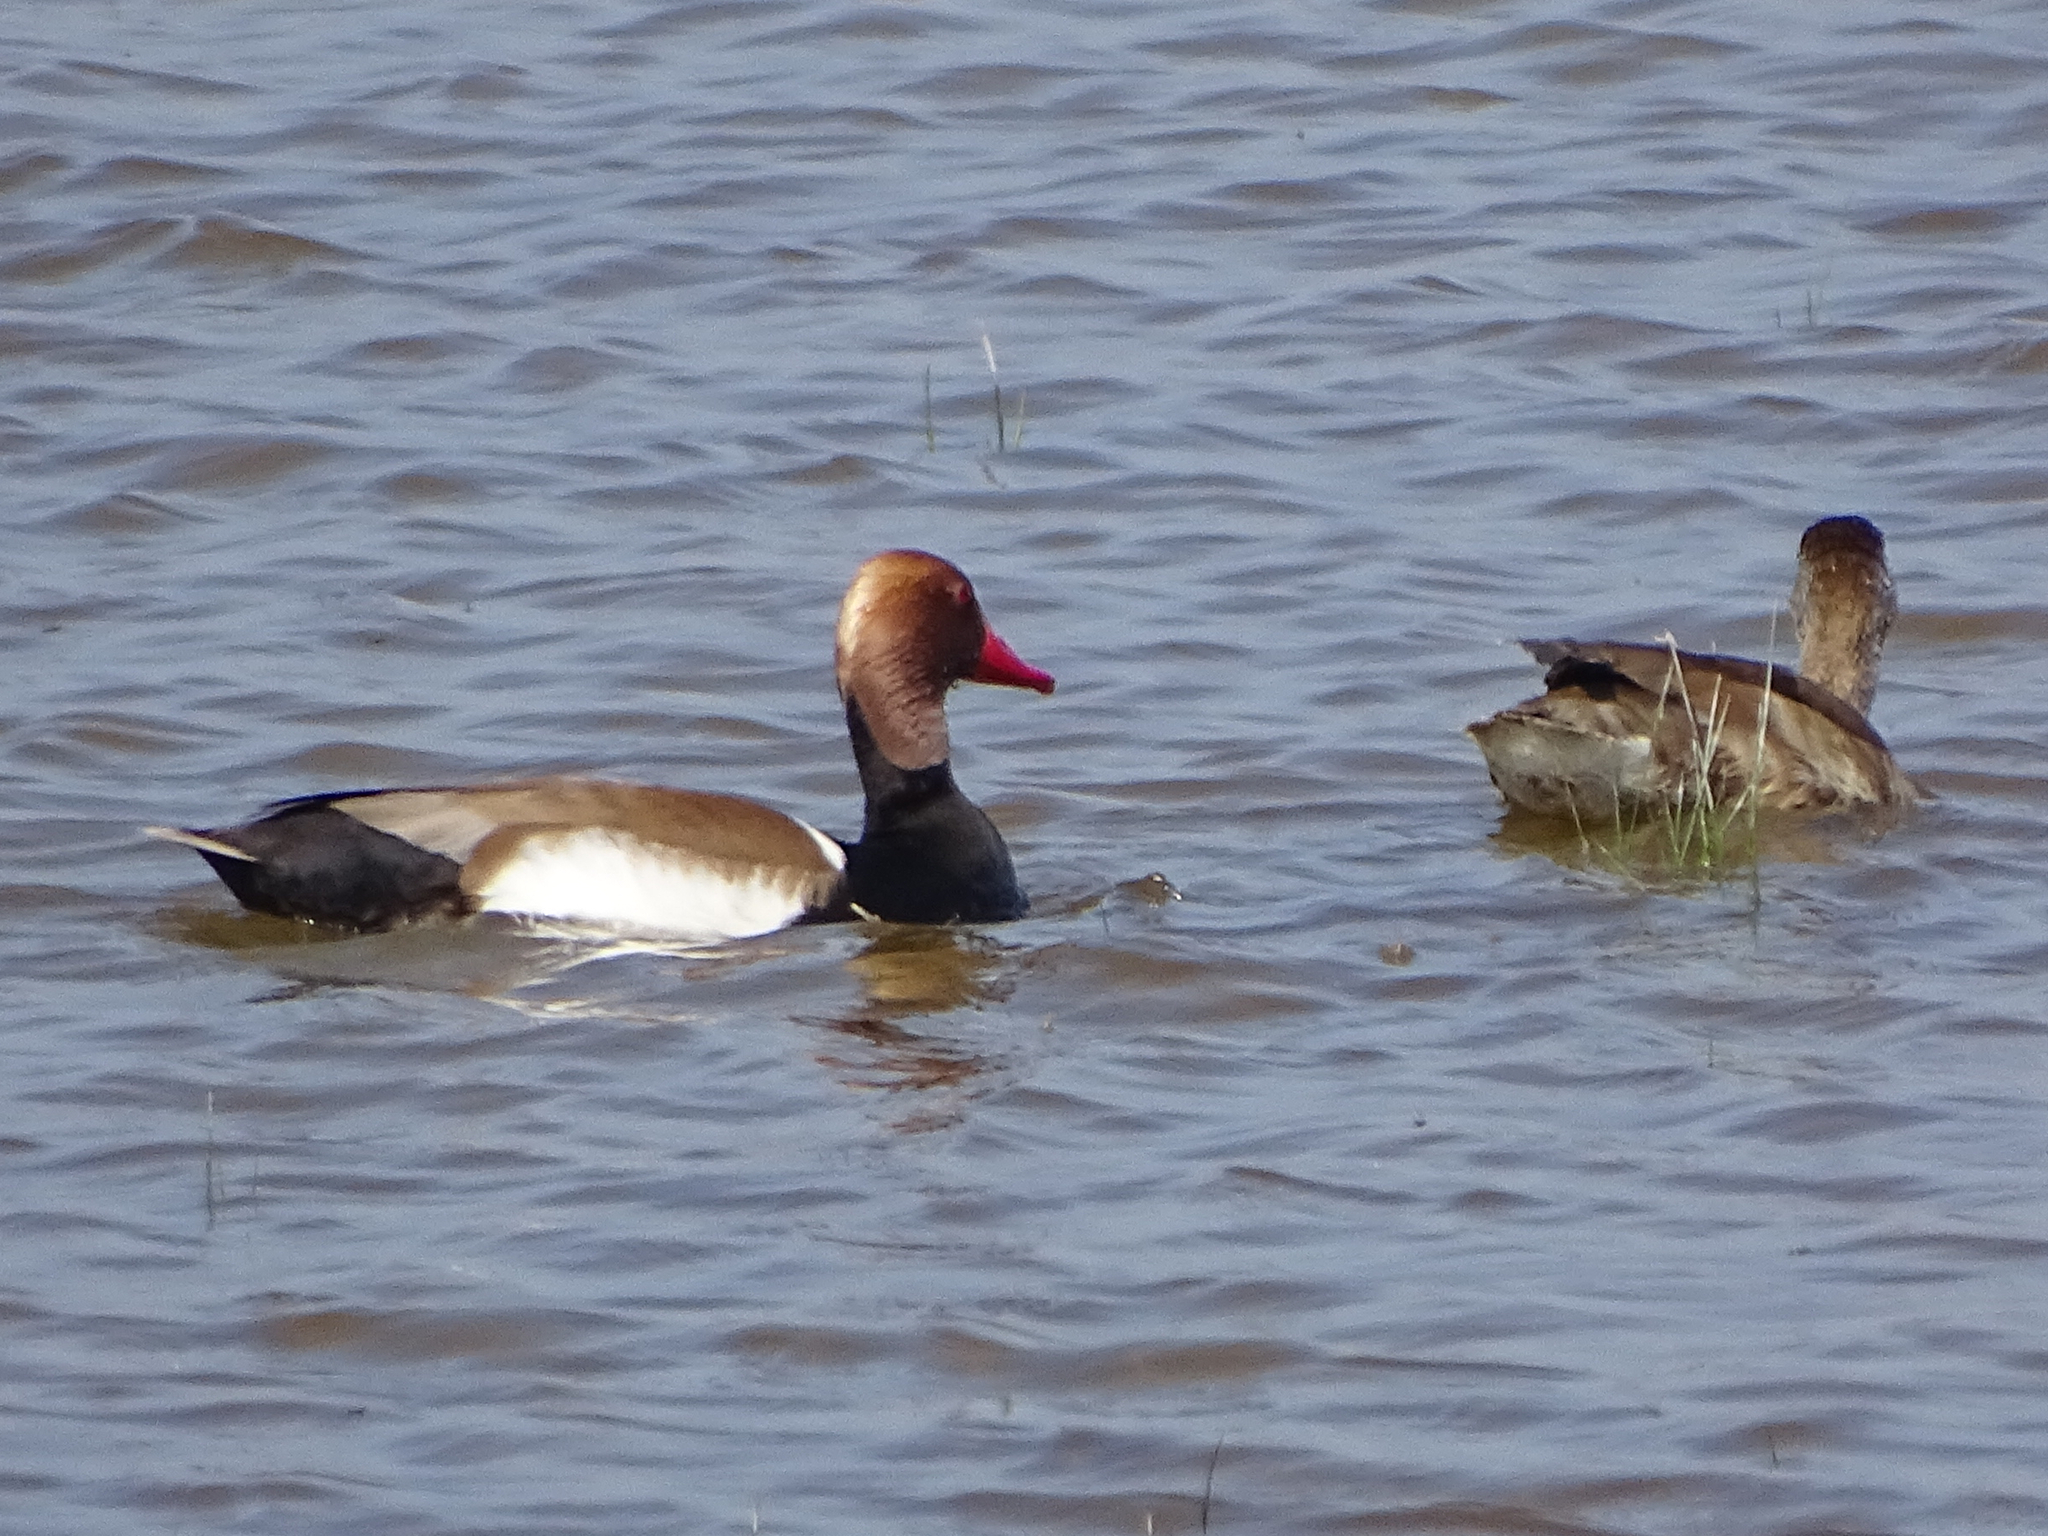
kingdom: Animalia
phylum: Chordata
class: Aves
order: Anseriformes
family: Anatidae
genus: Netta
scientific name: Netta rufina
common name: Red-crested pochard
